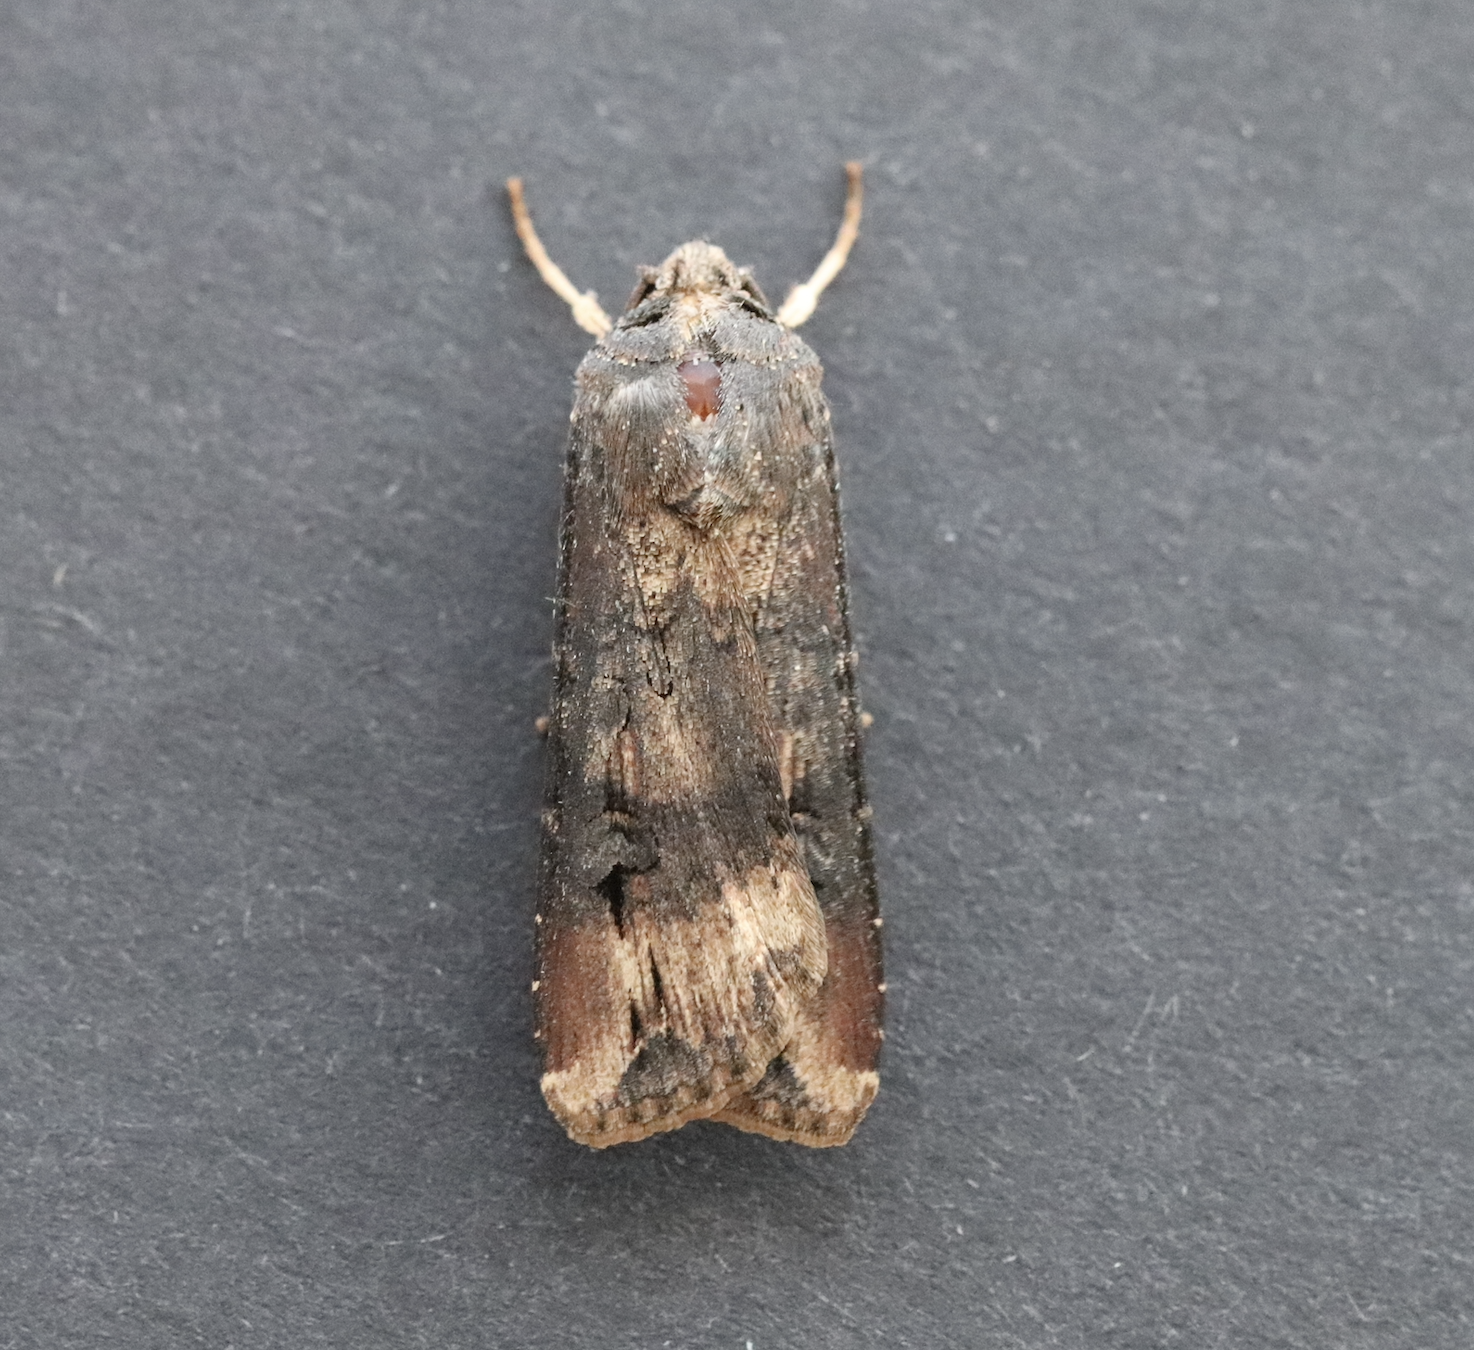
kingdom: Animalia
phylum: Arthropoda
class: Insecta
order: Lepidoptera
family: Noctuidae
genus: Agrotis
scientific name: Agrotis ipsilon
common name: Dark sword-grass
